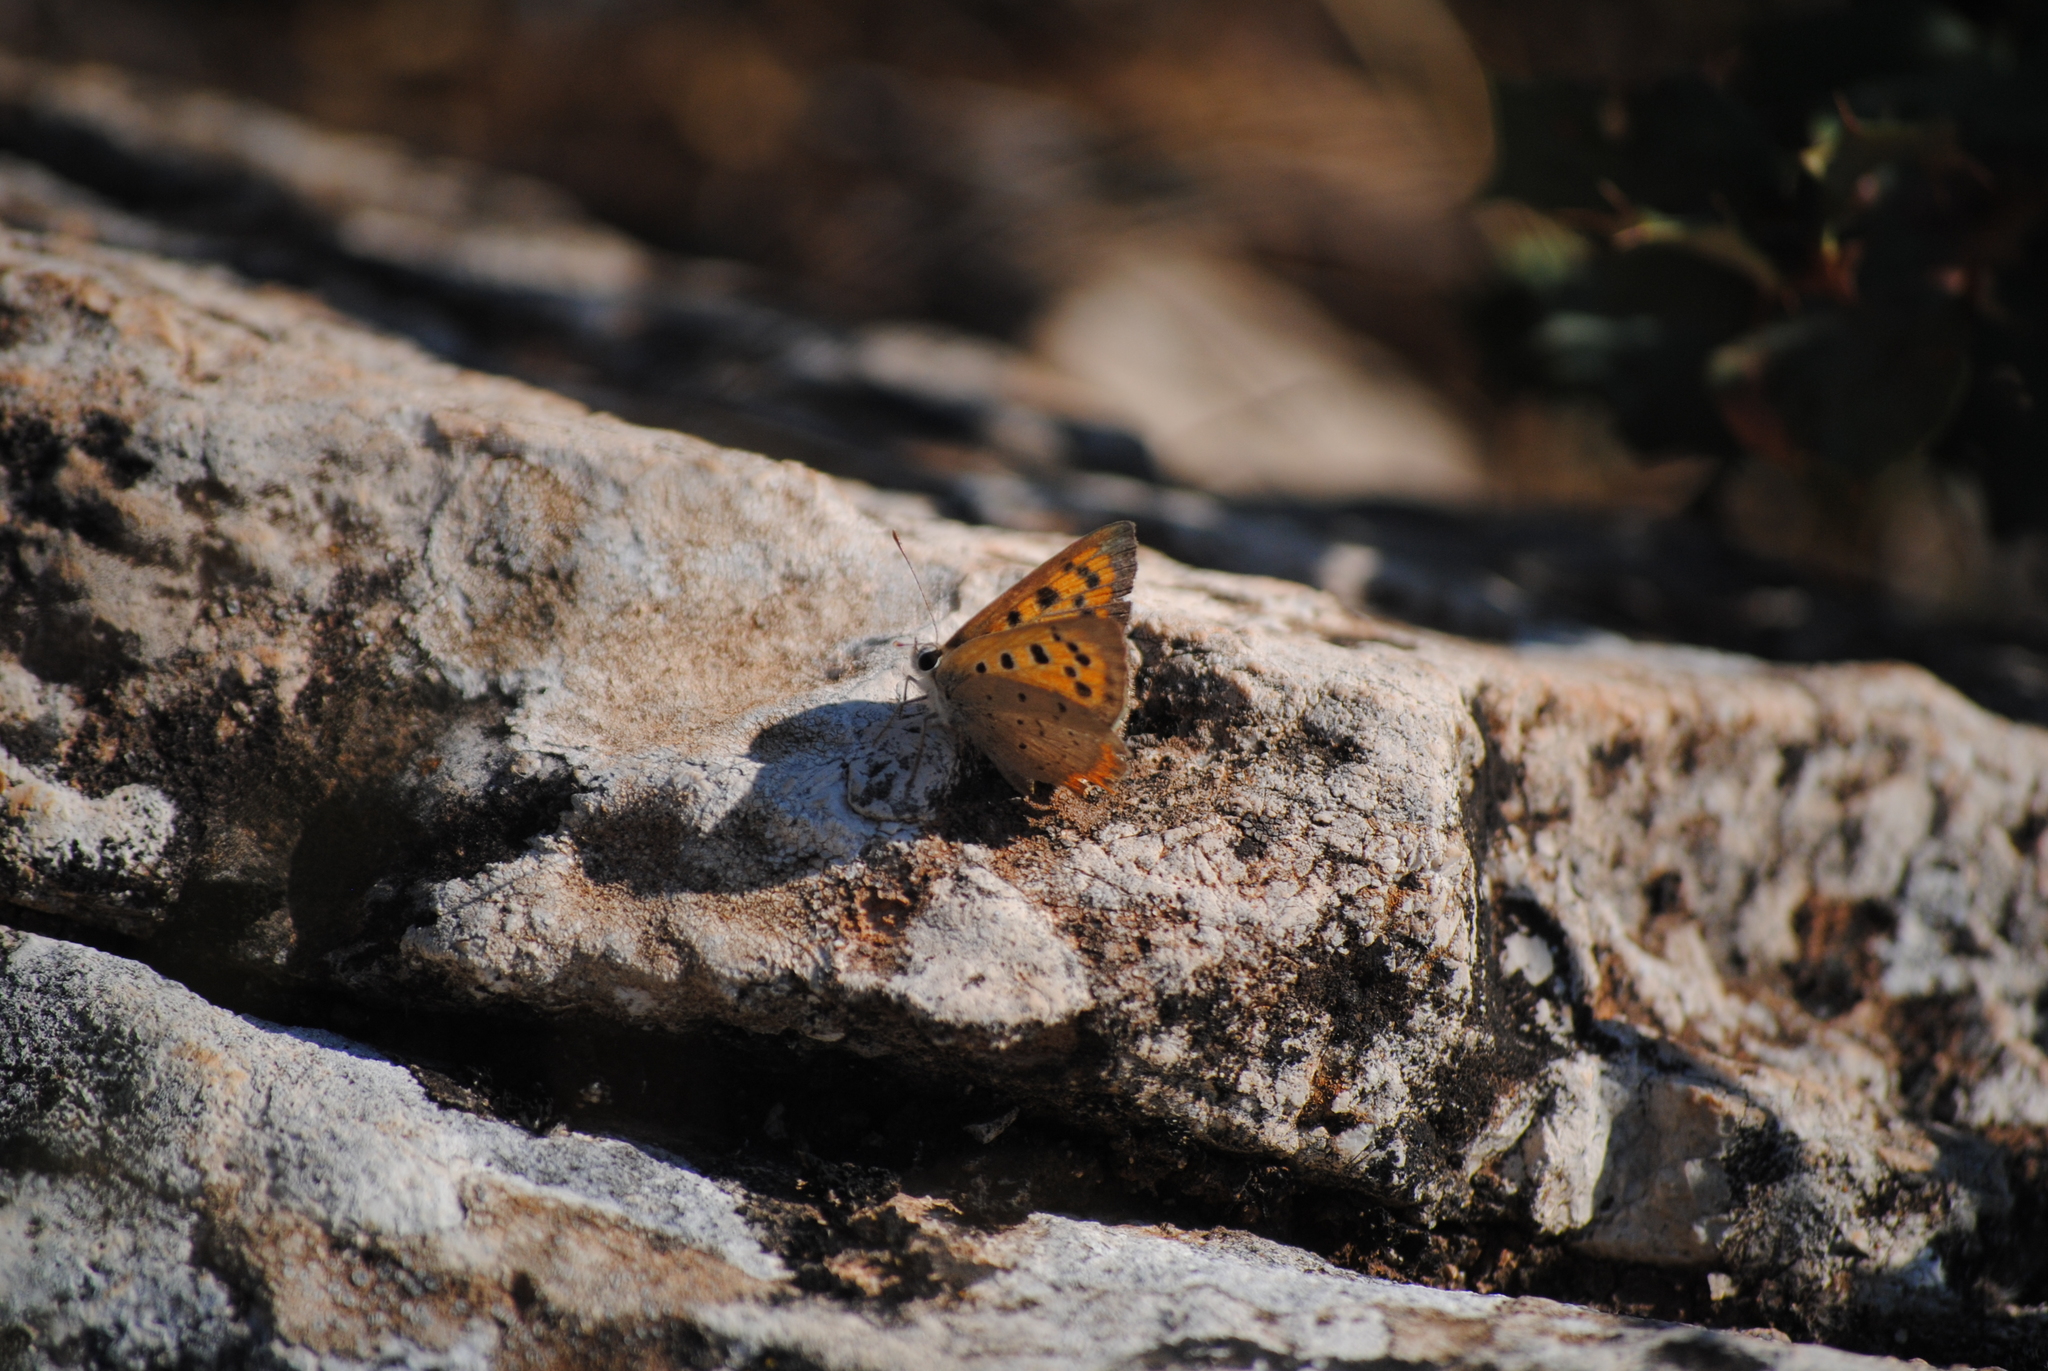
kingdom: Animalia
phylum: Arthropoda
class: Insecta
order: Lepidoptera
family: Lycaenidae
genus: Lycaena
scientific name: Lycaena phlaeas
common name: Small copper
